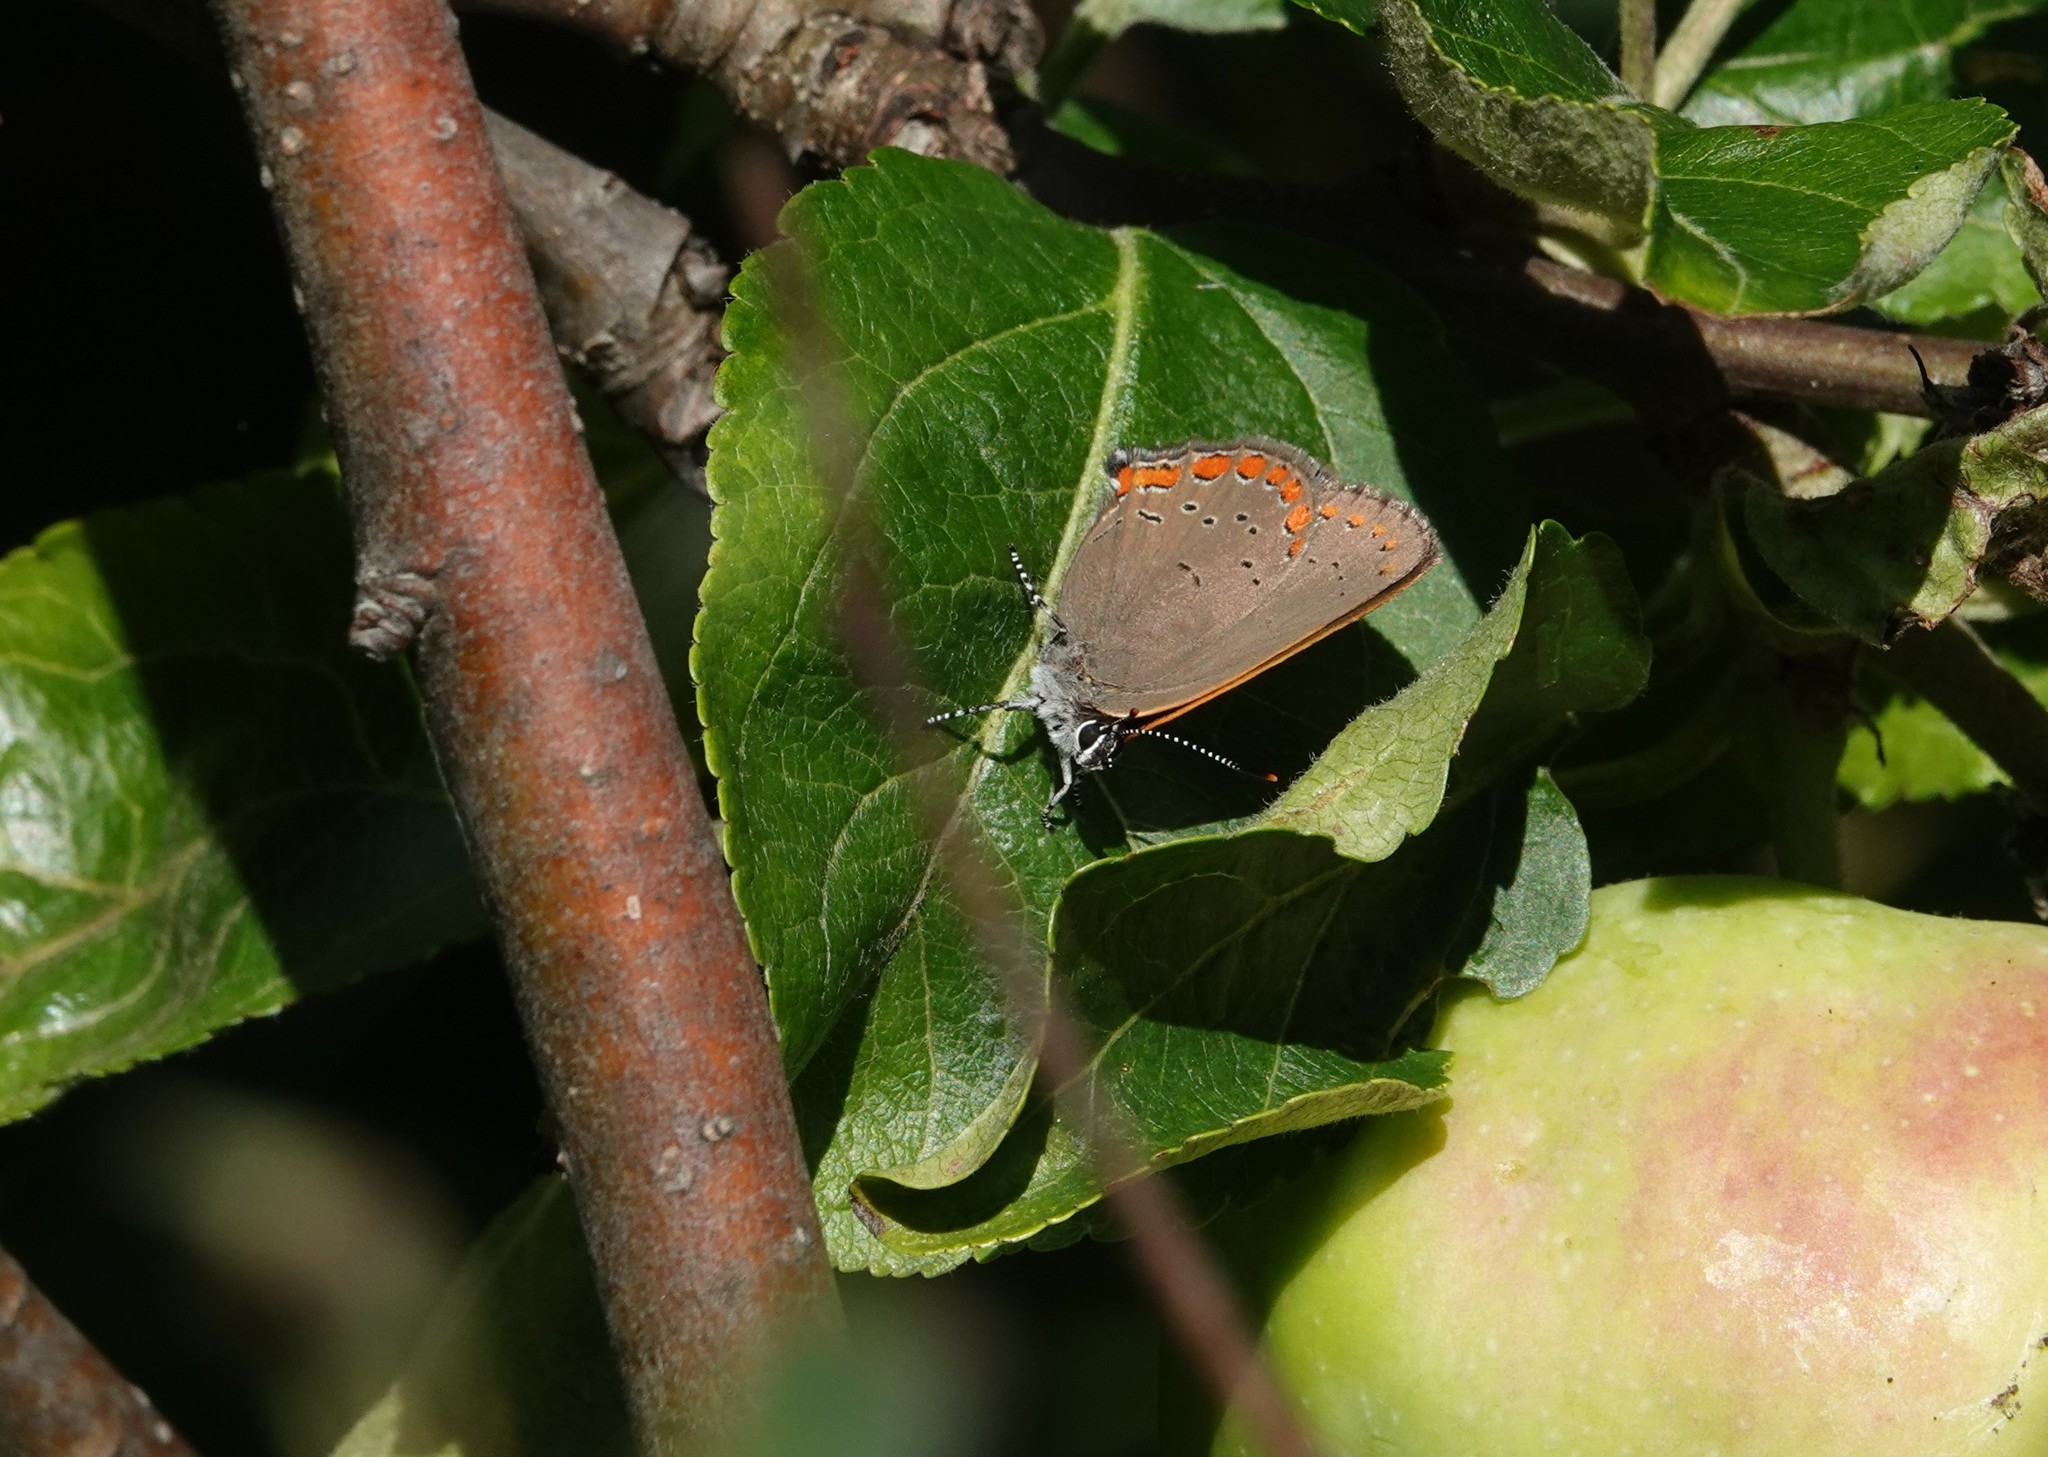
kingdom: Animalia
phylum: Arthropoda
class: Insecta
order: Lepidoptera
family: Lycaenidae
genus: Harkenclenus
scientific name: Harkenclenus titus
